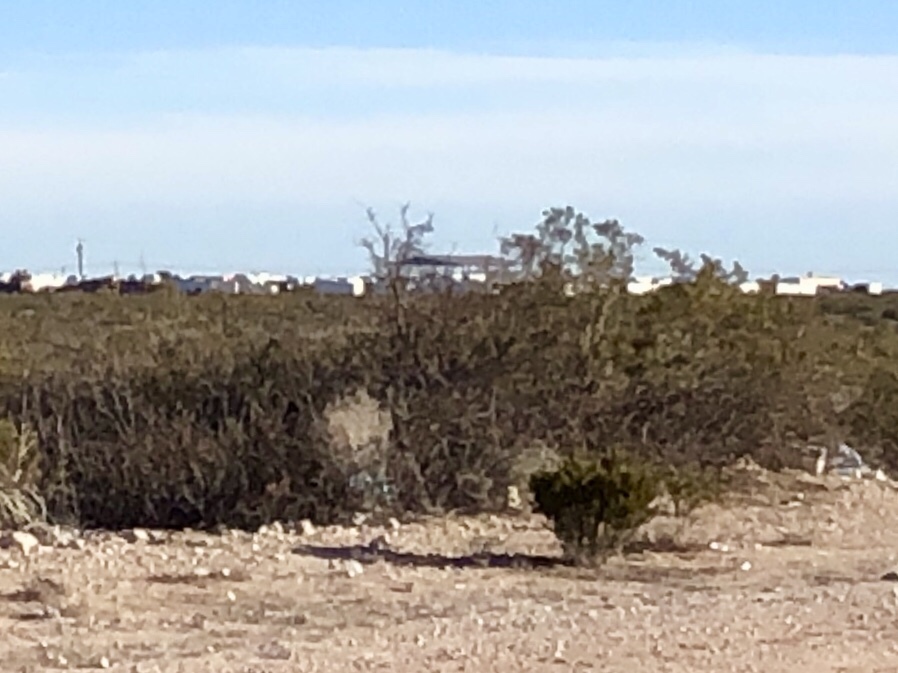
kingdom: Plantae
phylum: Tracheophyta
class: Magnoliopsida
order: Zygophyllales
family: Zygophyllaceae
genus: Larrea
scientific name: Larrea tridentata
